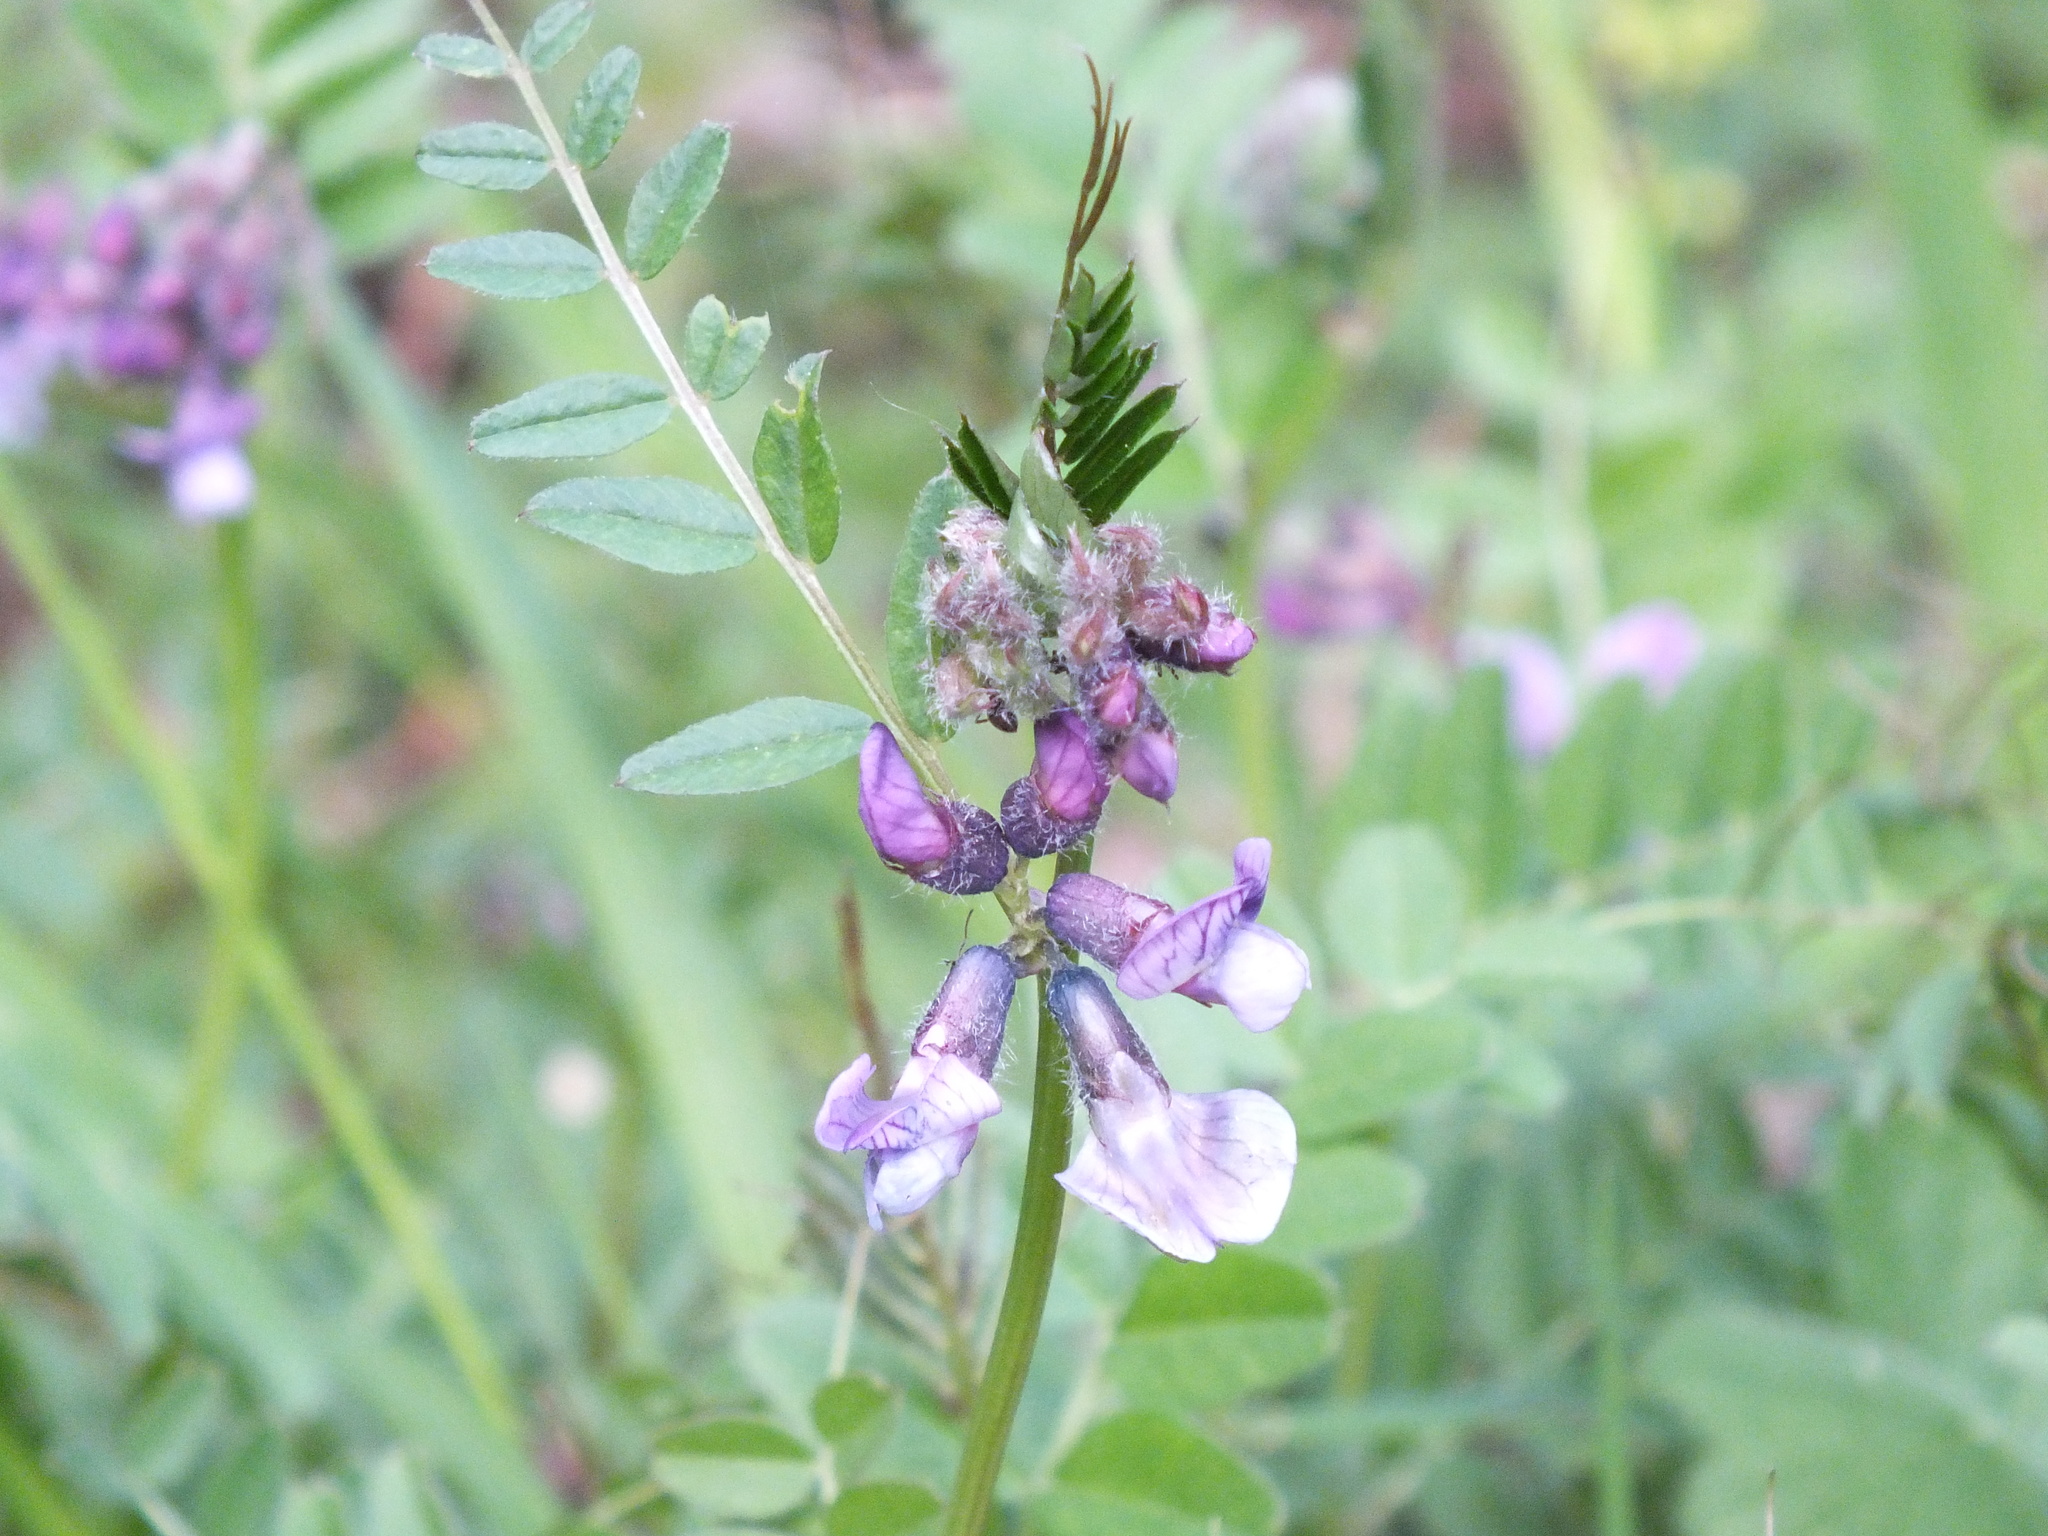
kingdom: Plantae
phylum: Tracheophyta
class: Magnoliopsida
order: Fabales
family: Fabaceae
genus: Vicia
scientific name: Vicia sativa
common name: Garden vetch
